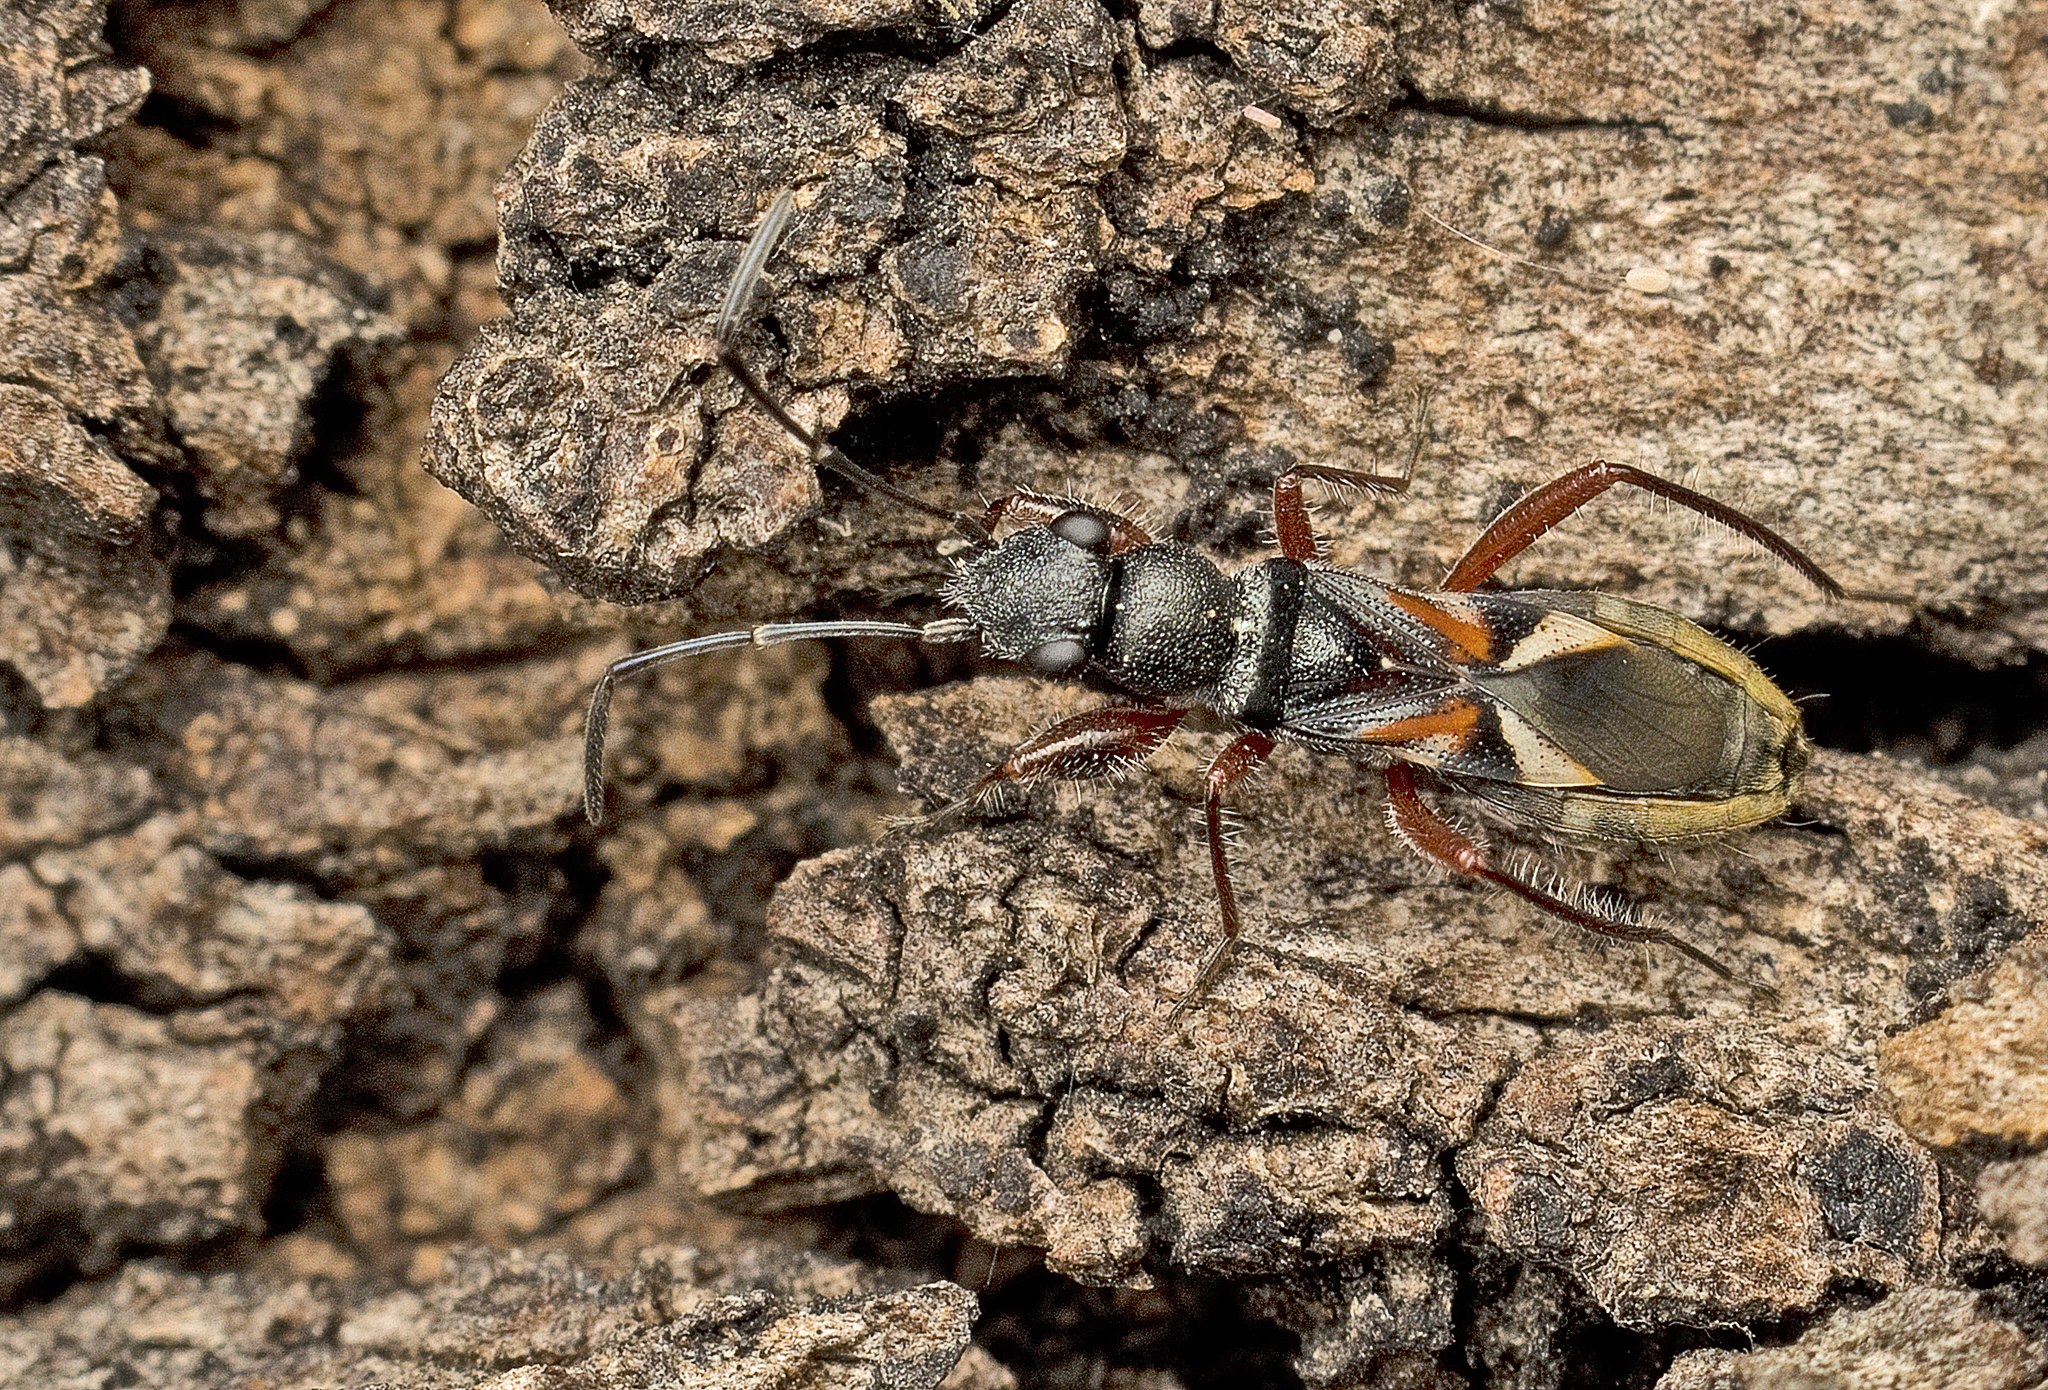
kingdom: Animalia
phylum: Arthropoda
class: Insecta
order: Hemiptera
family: Rhyparochromidae
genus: Daerlac
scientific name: Daerlac cephalotes
